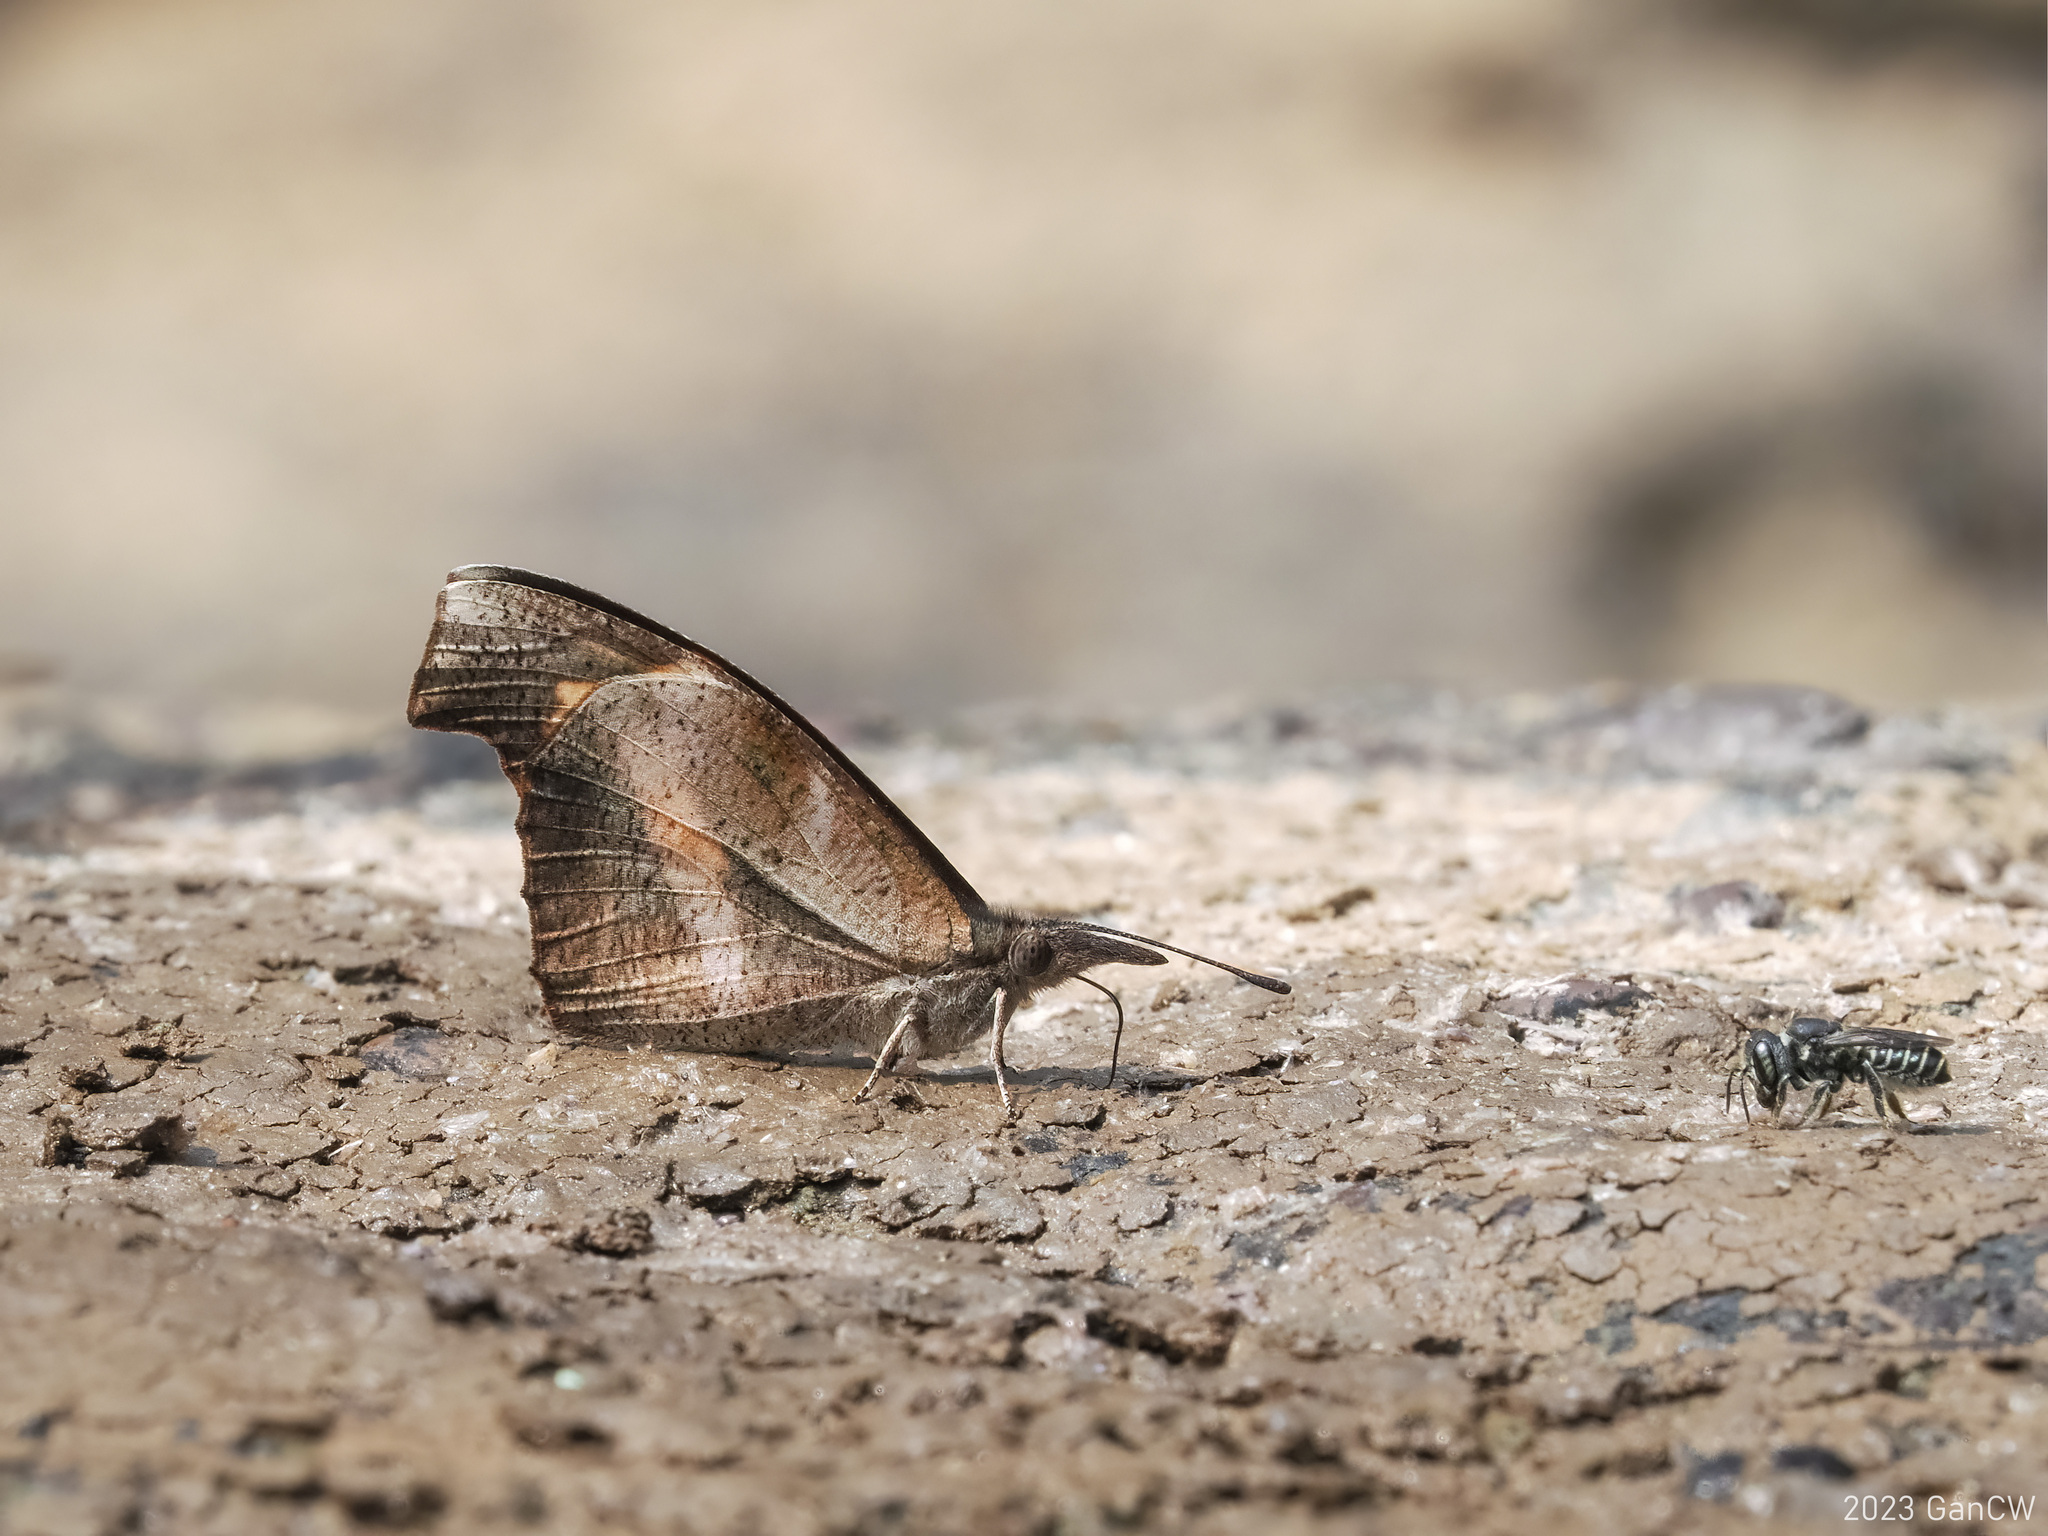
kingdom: Animalia
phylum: Arthropoda
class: Insecta
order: Lepidoptera
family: Nymphalidae
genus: Libythea
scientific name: Libythea myrrha
